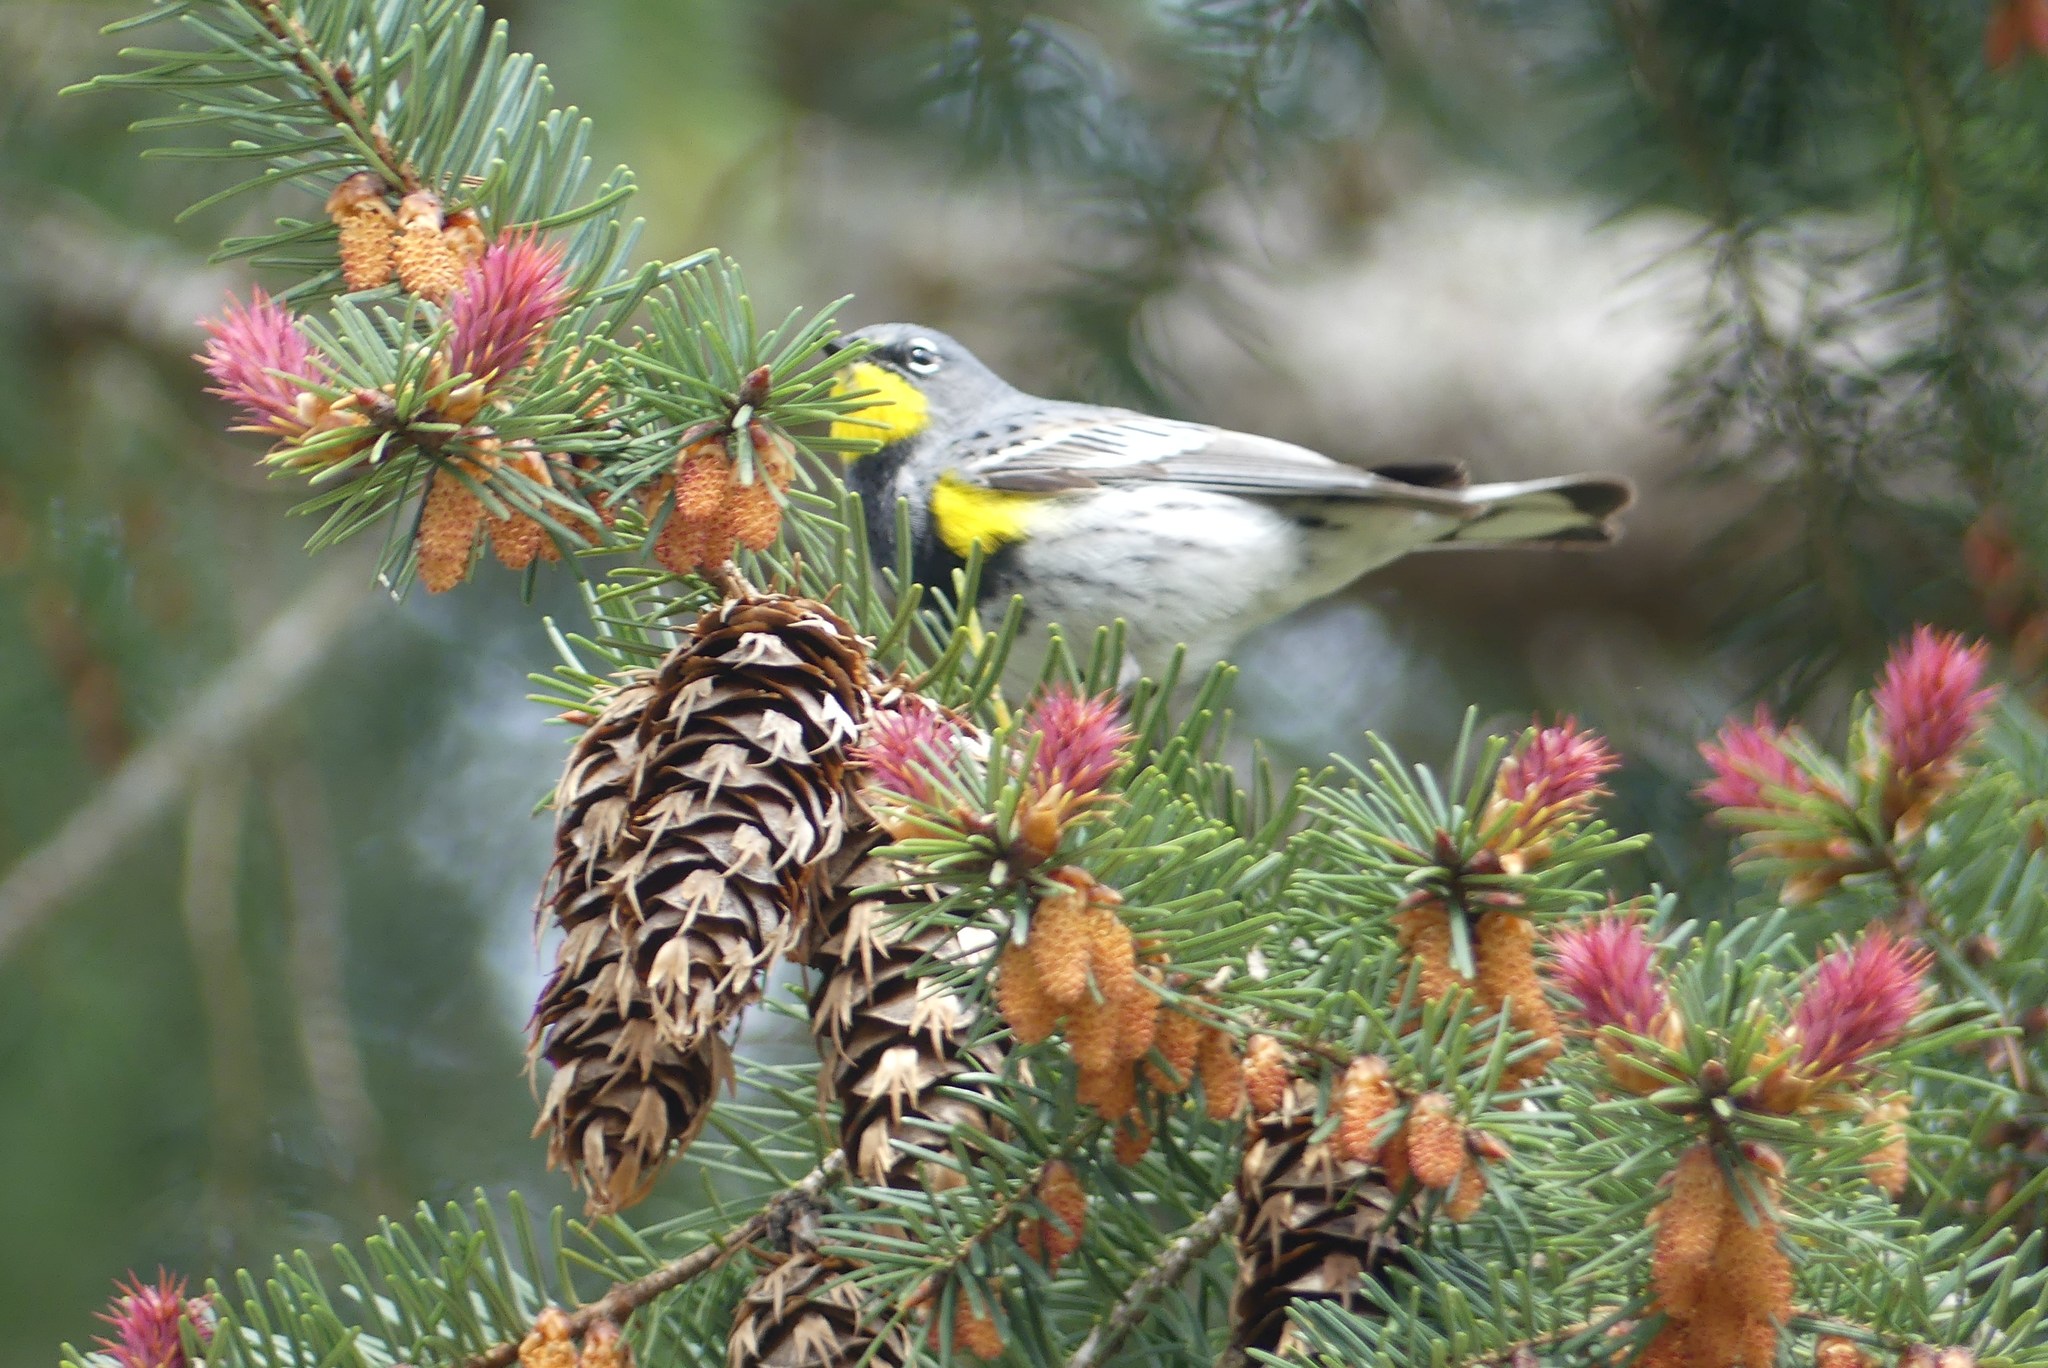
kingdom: Animalia
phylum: Chordata
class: Aves
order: Passeriformes
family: Parulidae
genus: Setophaga
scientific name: Setophaga coronata
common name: Myrtle warbler
